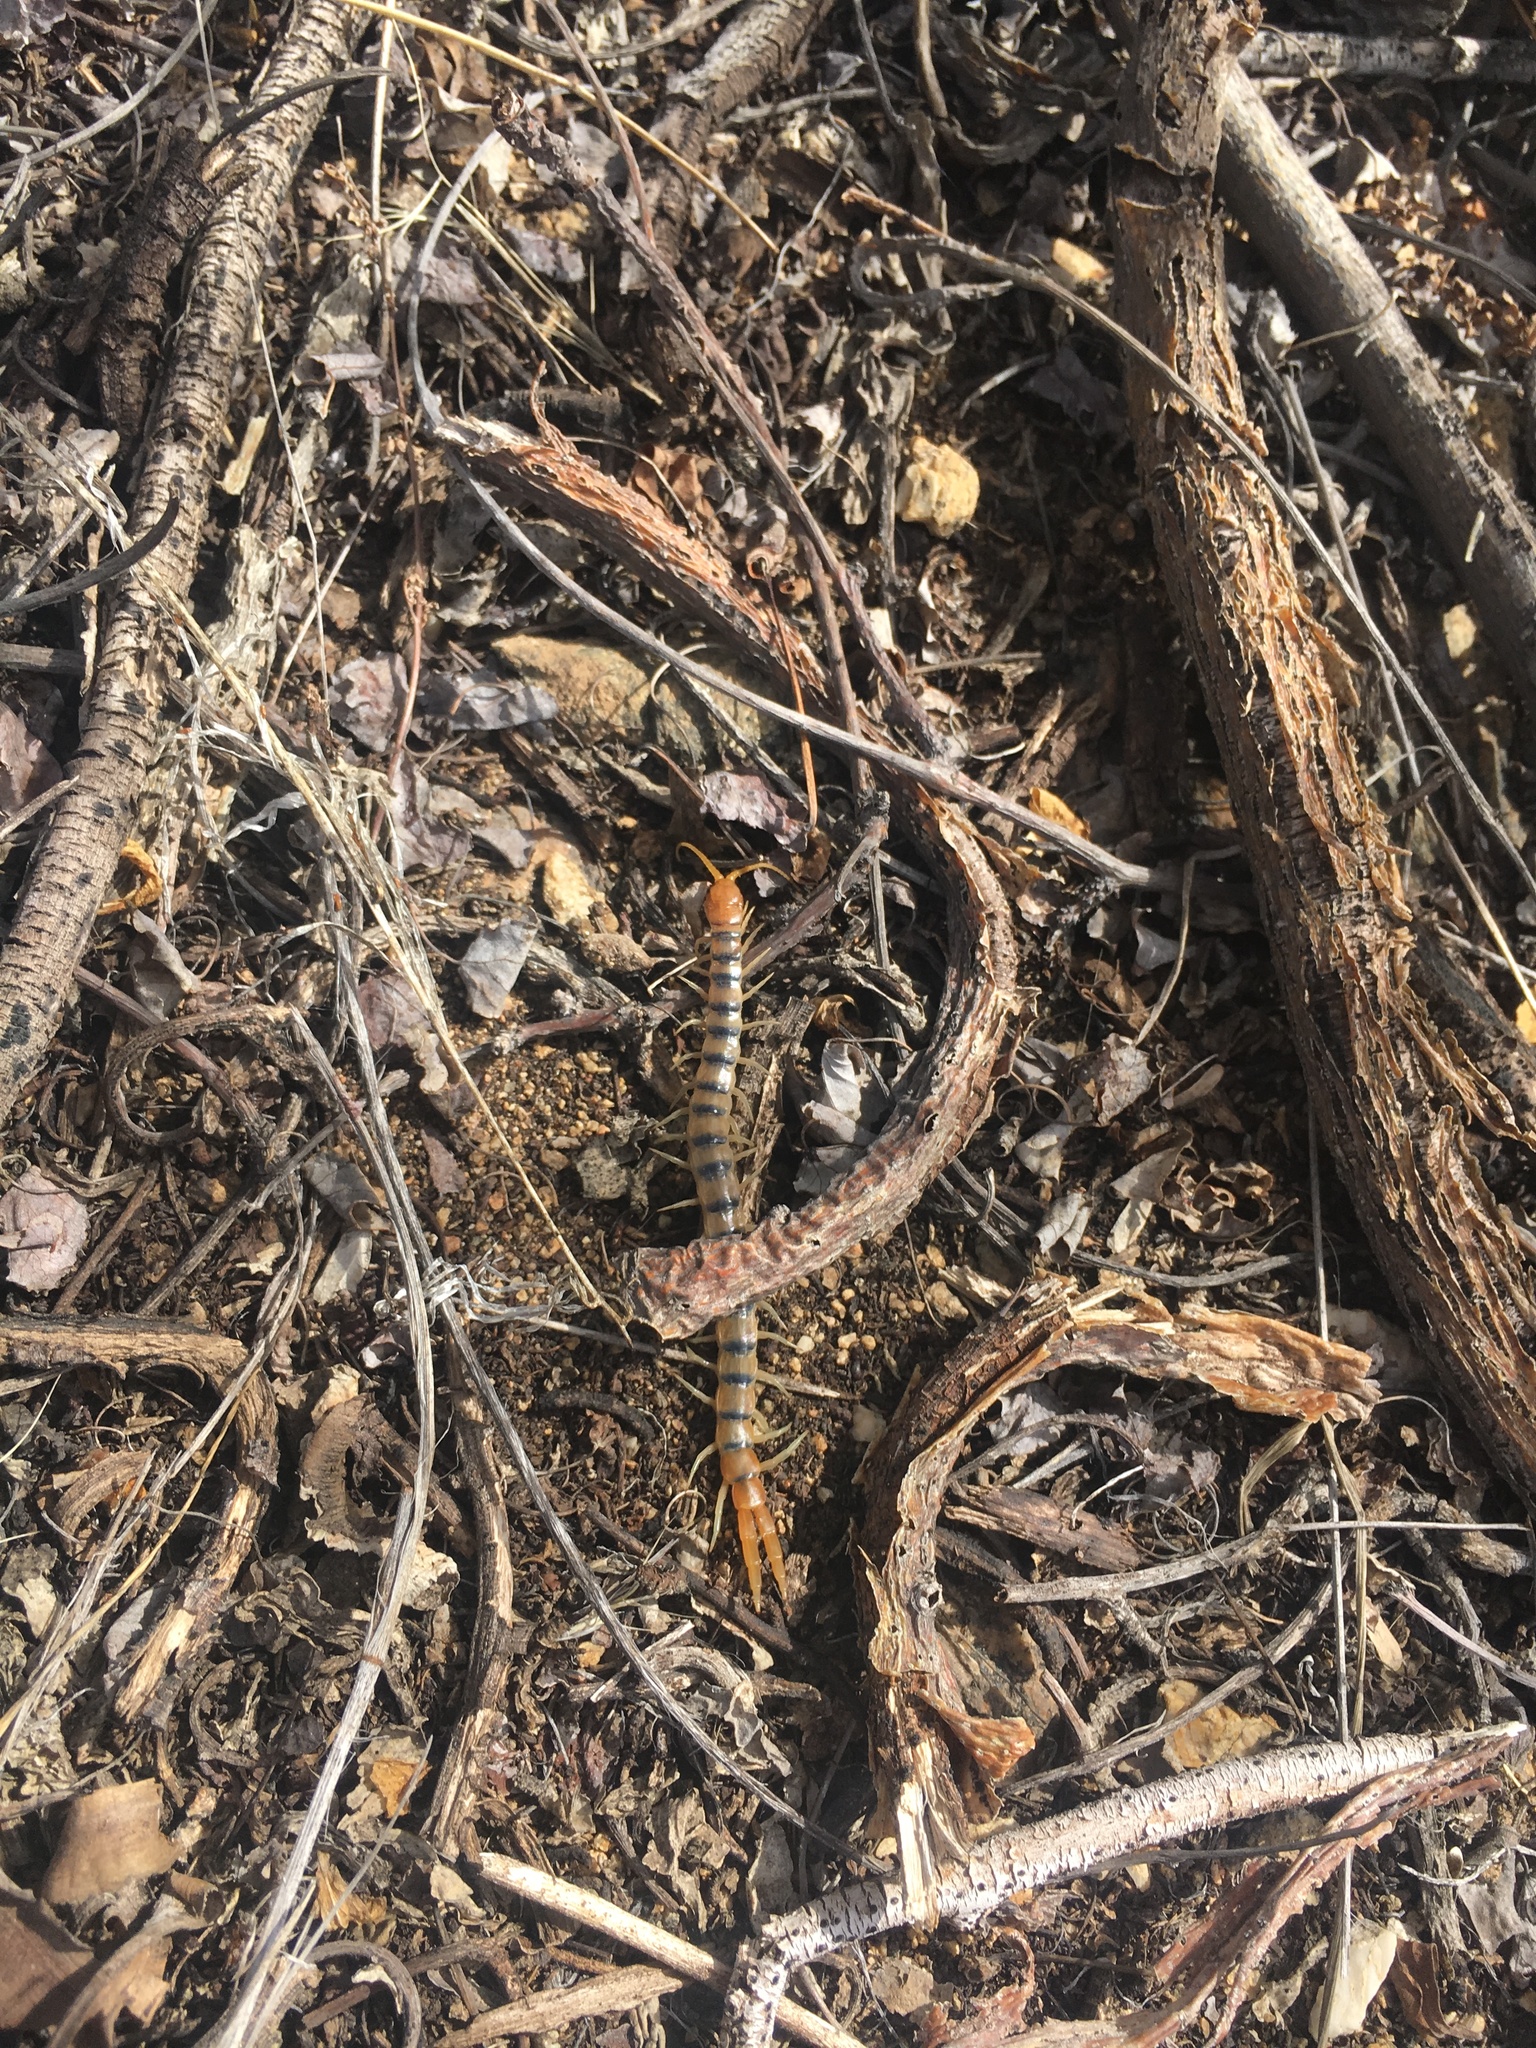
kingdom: Animalia
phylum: Arthropoda
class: Chilopoda
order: Scolopendromorpha
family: Scolopendridae
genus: Scolopendra
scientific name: Scolopendra polymorpha
